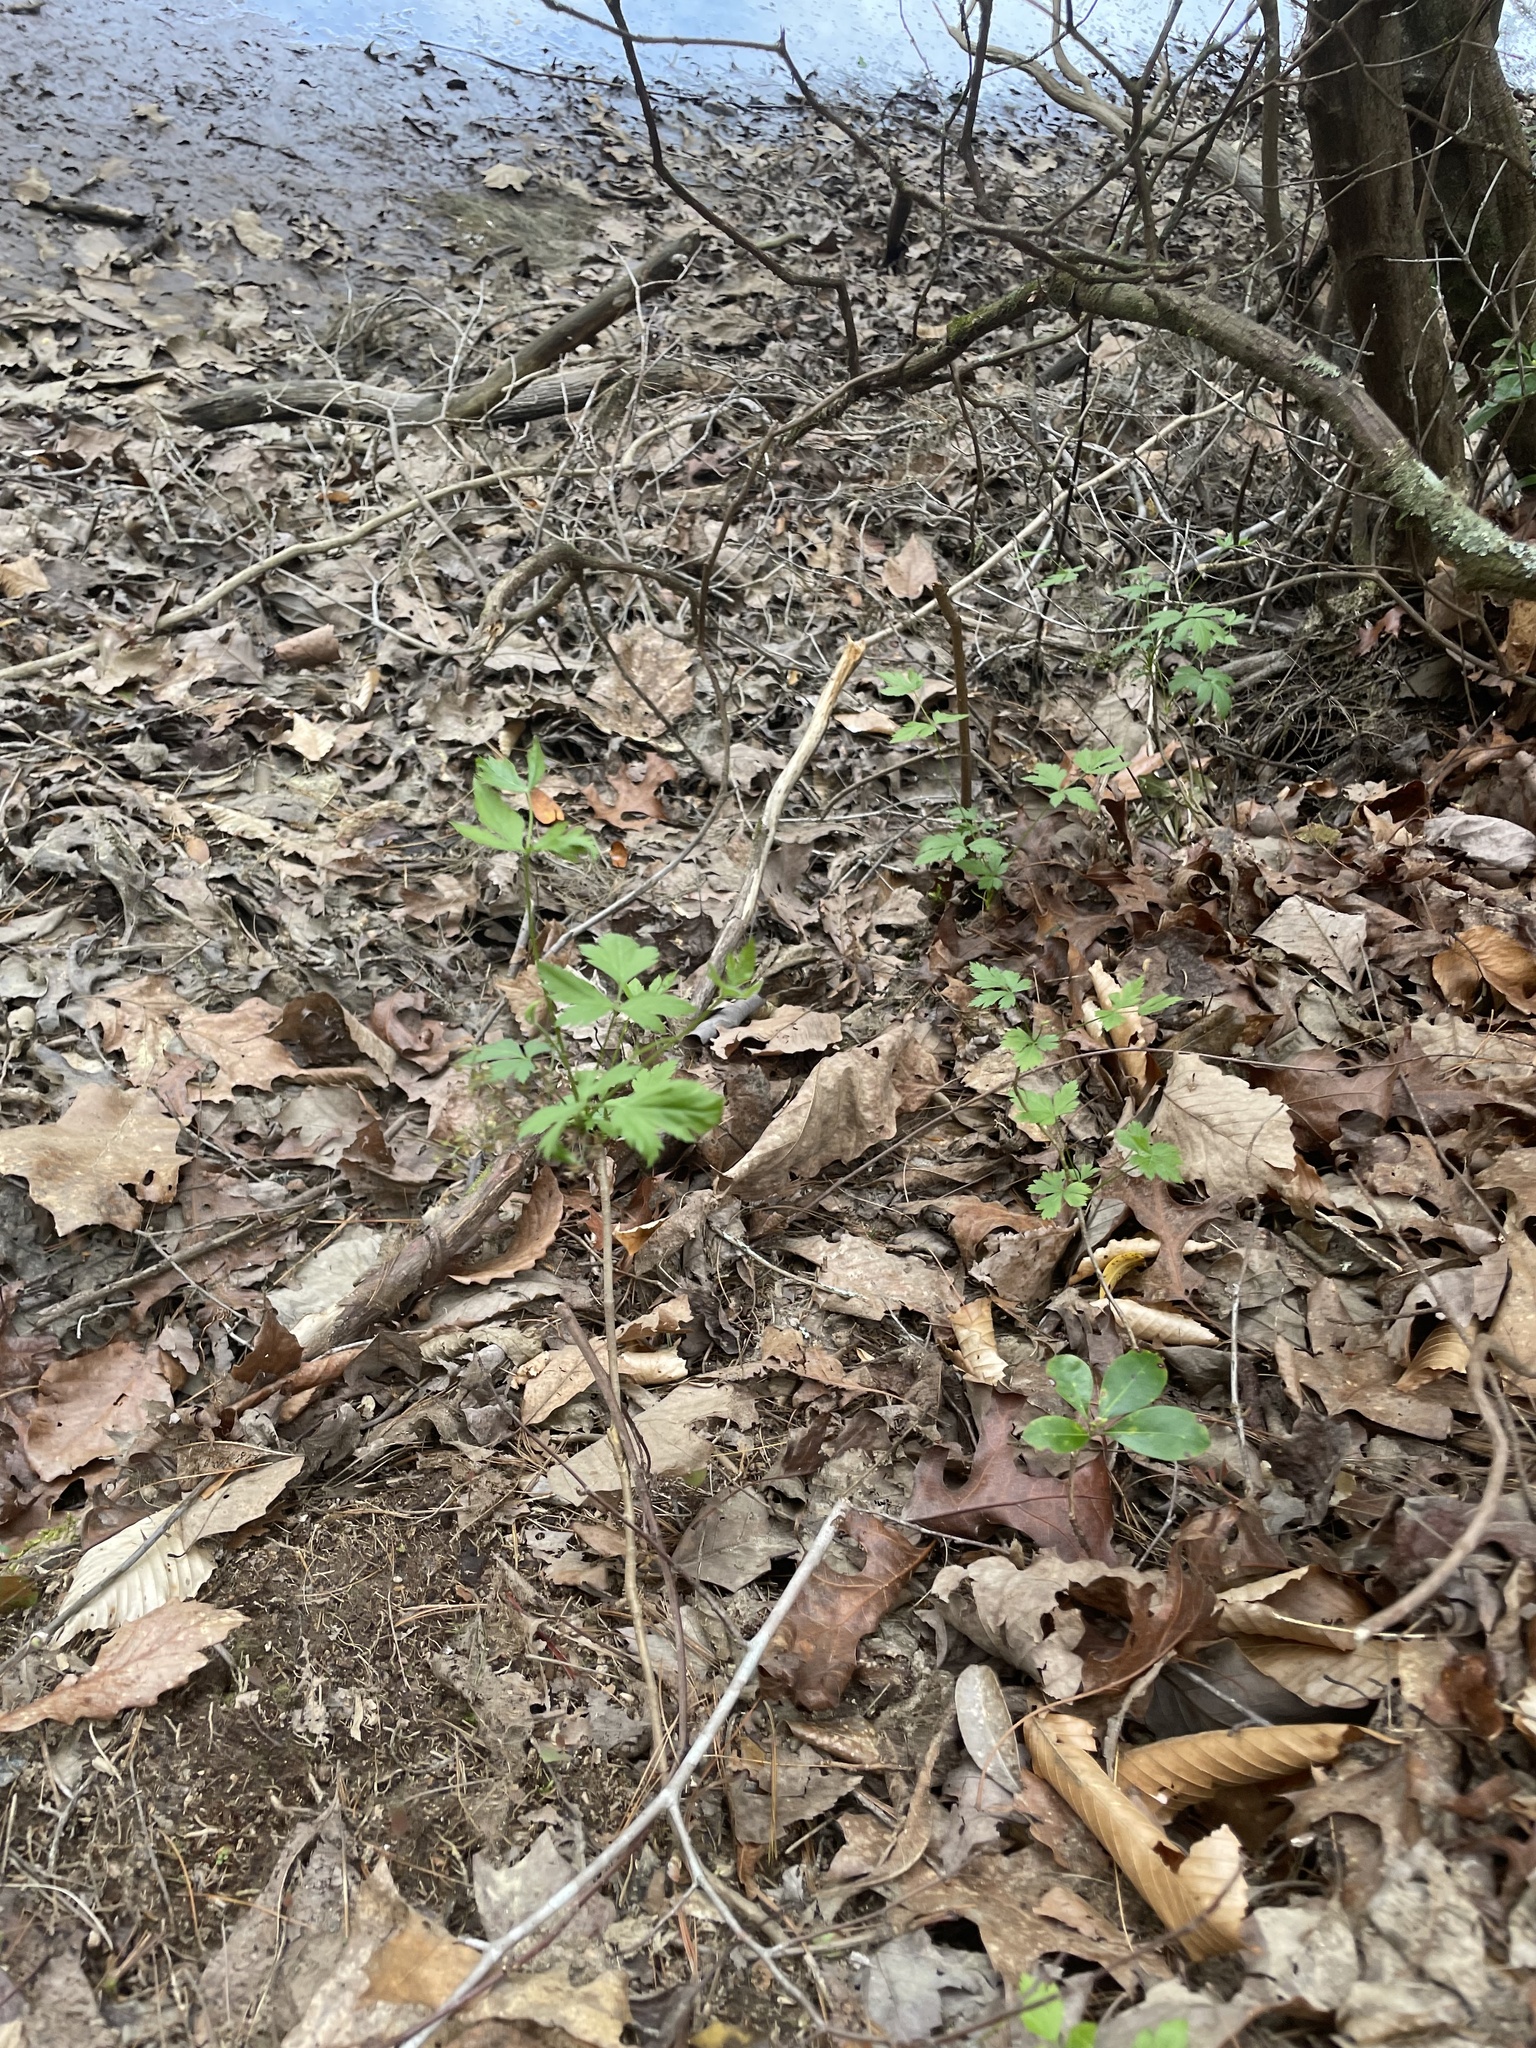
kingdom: Plantae
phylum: Tracheophyta
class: Magnoliopsida
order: Ranunculales
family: Ranunculaceae
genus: Xanthorhiza
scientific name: Xanthorhiza simplicissima
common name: Yellowroot
